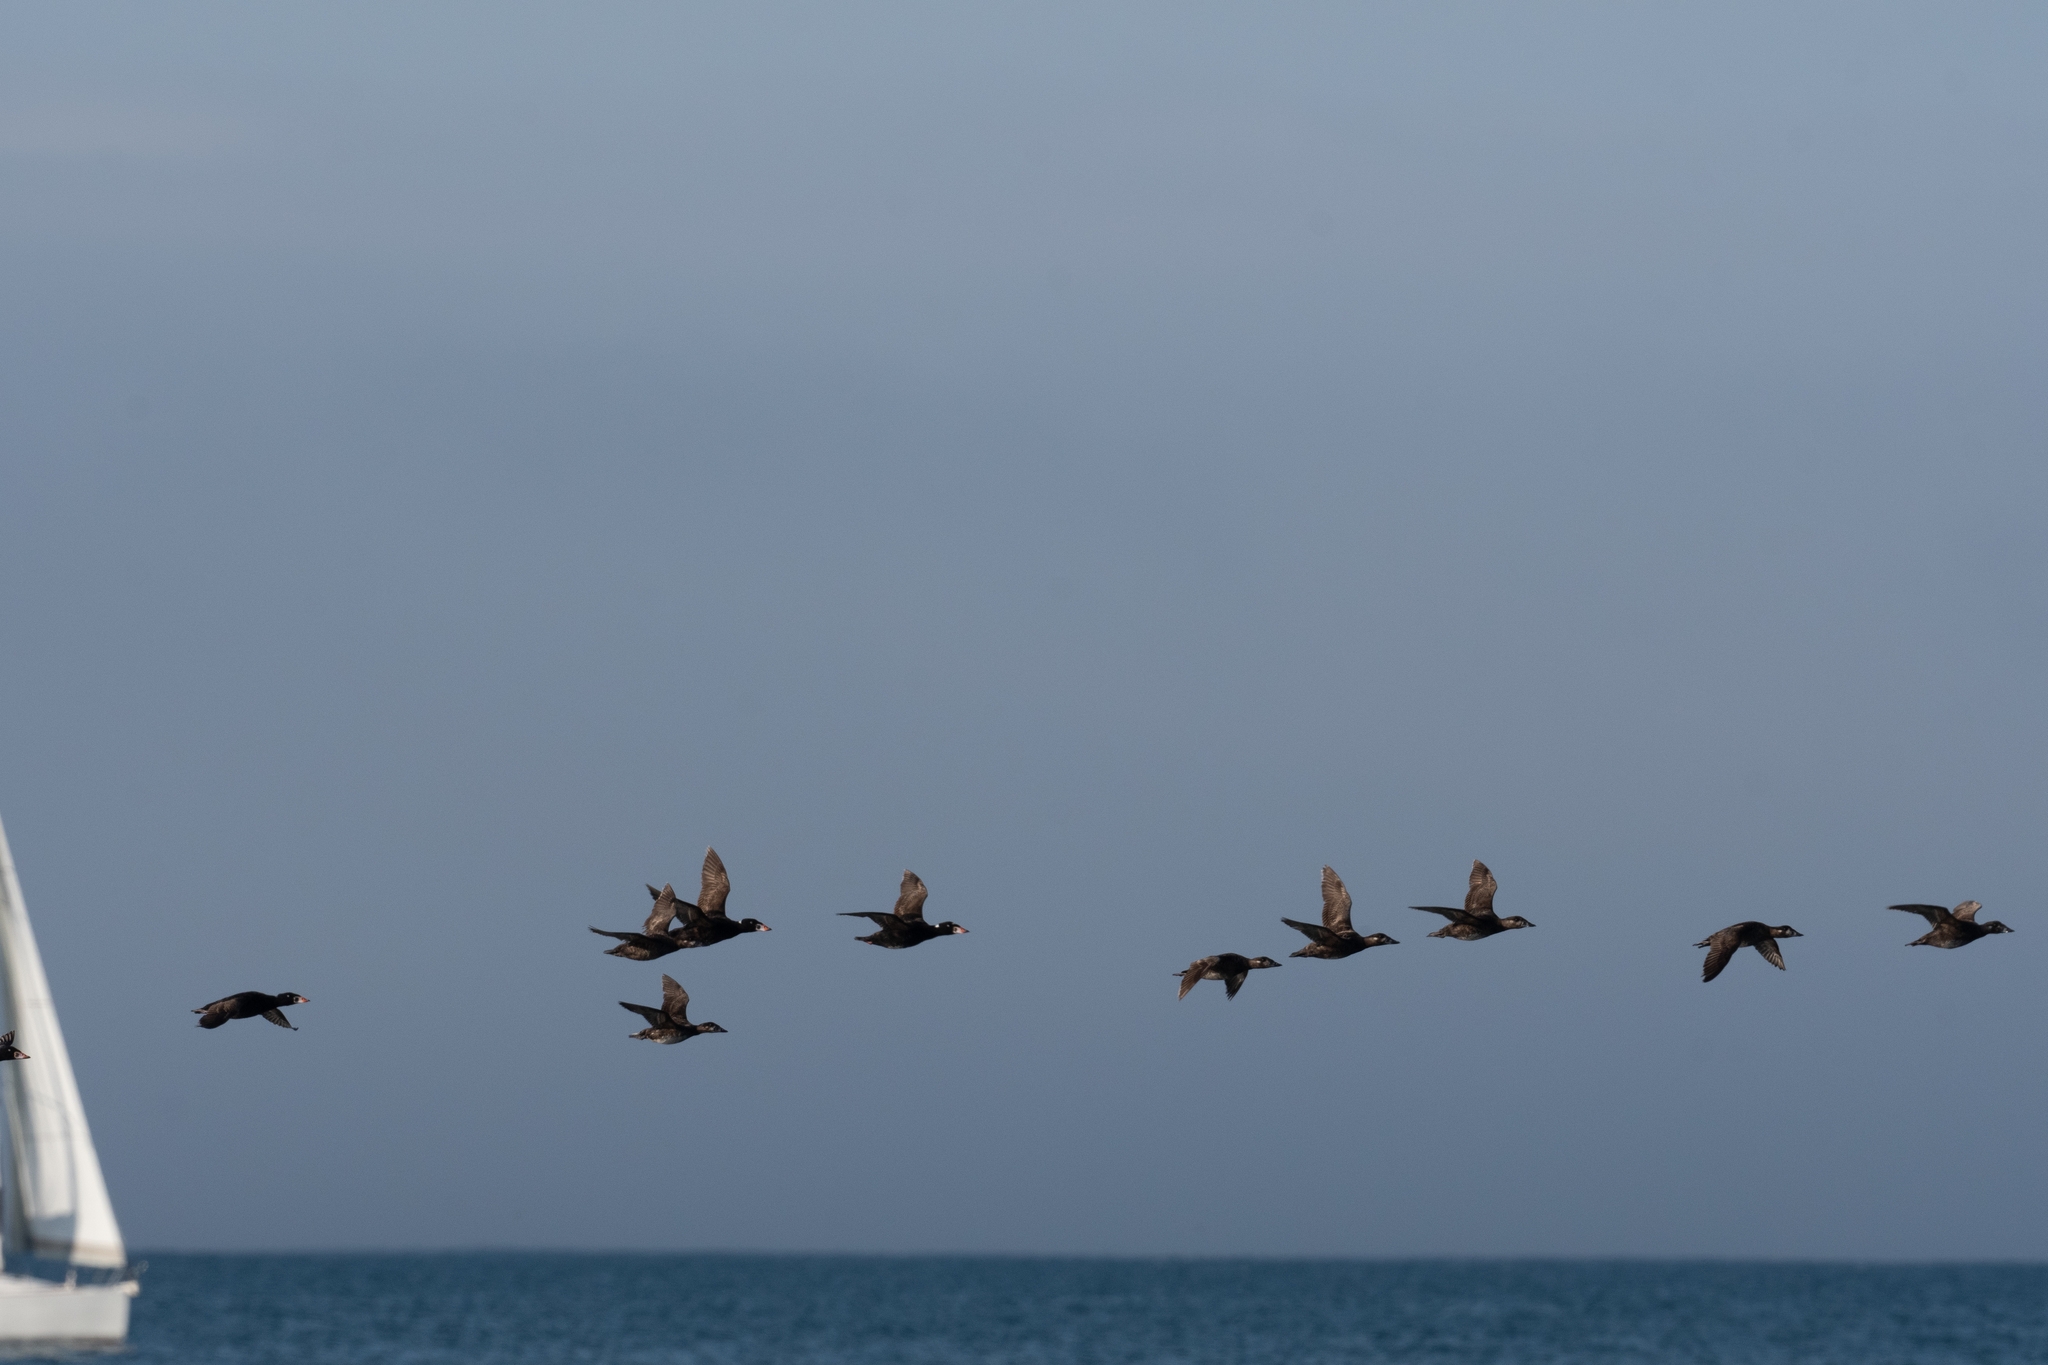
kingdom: Animalia
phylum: Chordata
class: Aves
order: Anseriformes
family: Anatidae
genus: Melanitta
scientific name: Melanitta perspicillata
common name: Surf scoter
